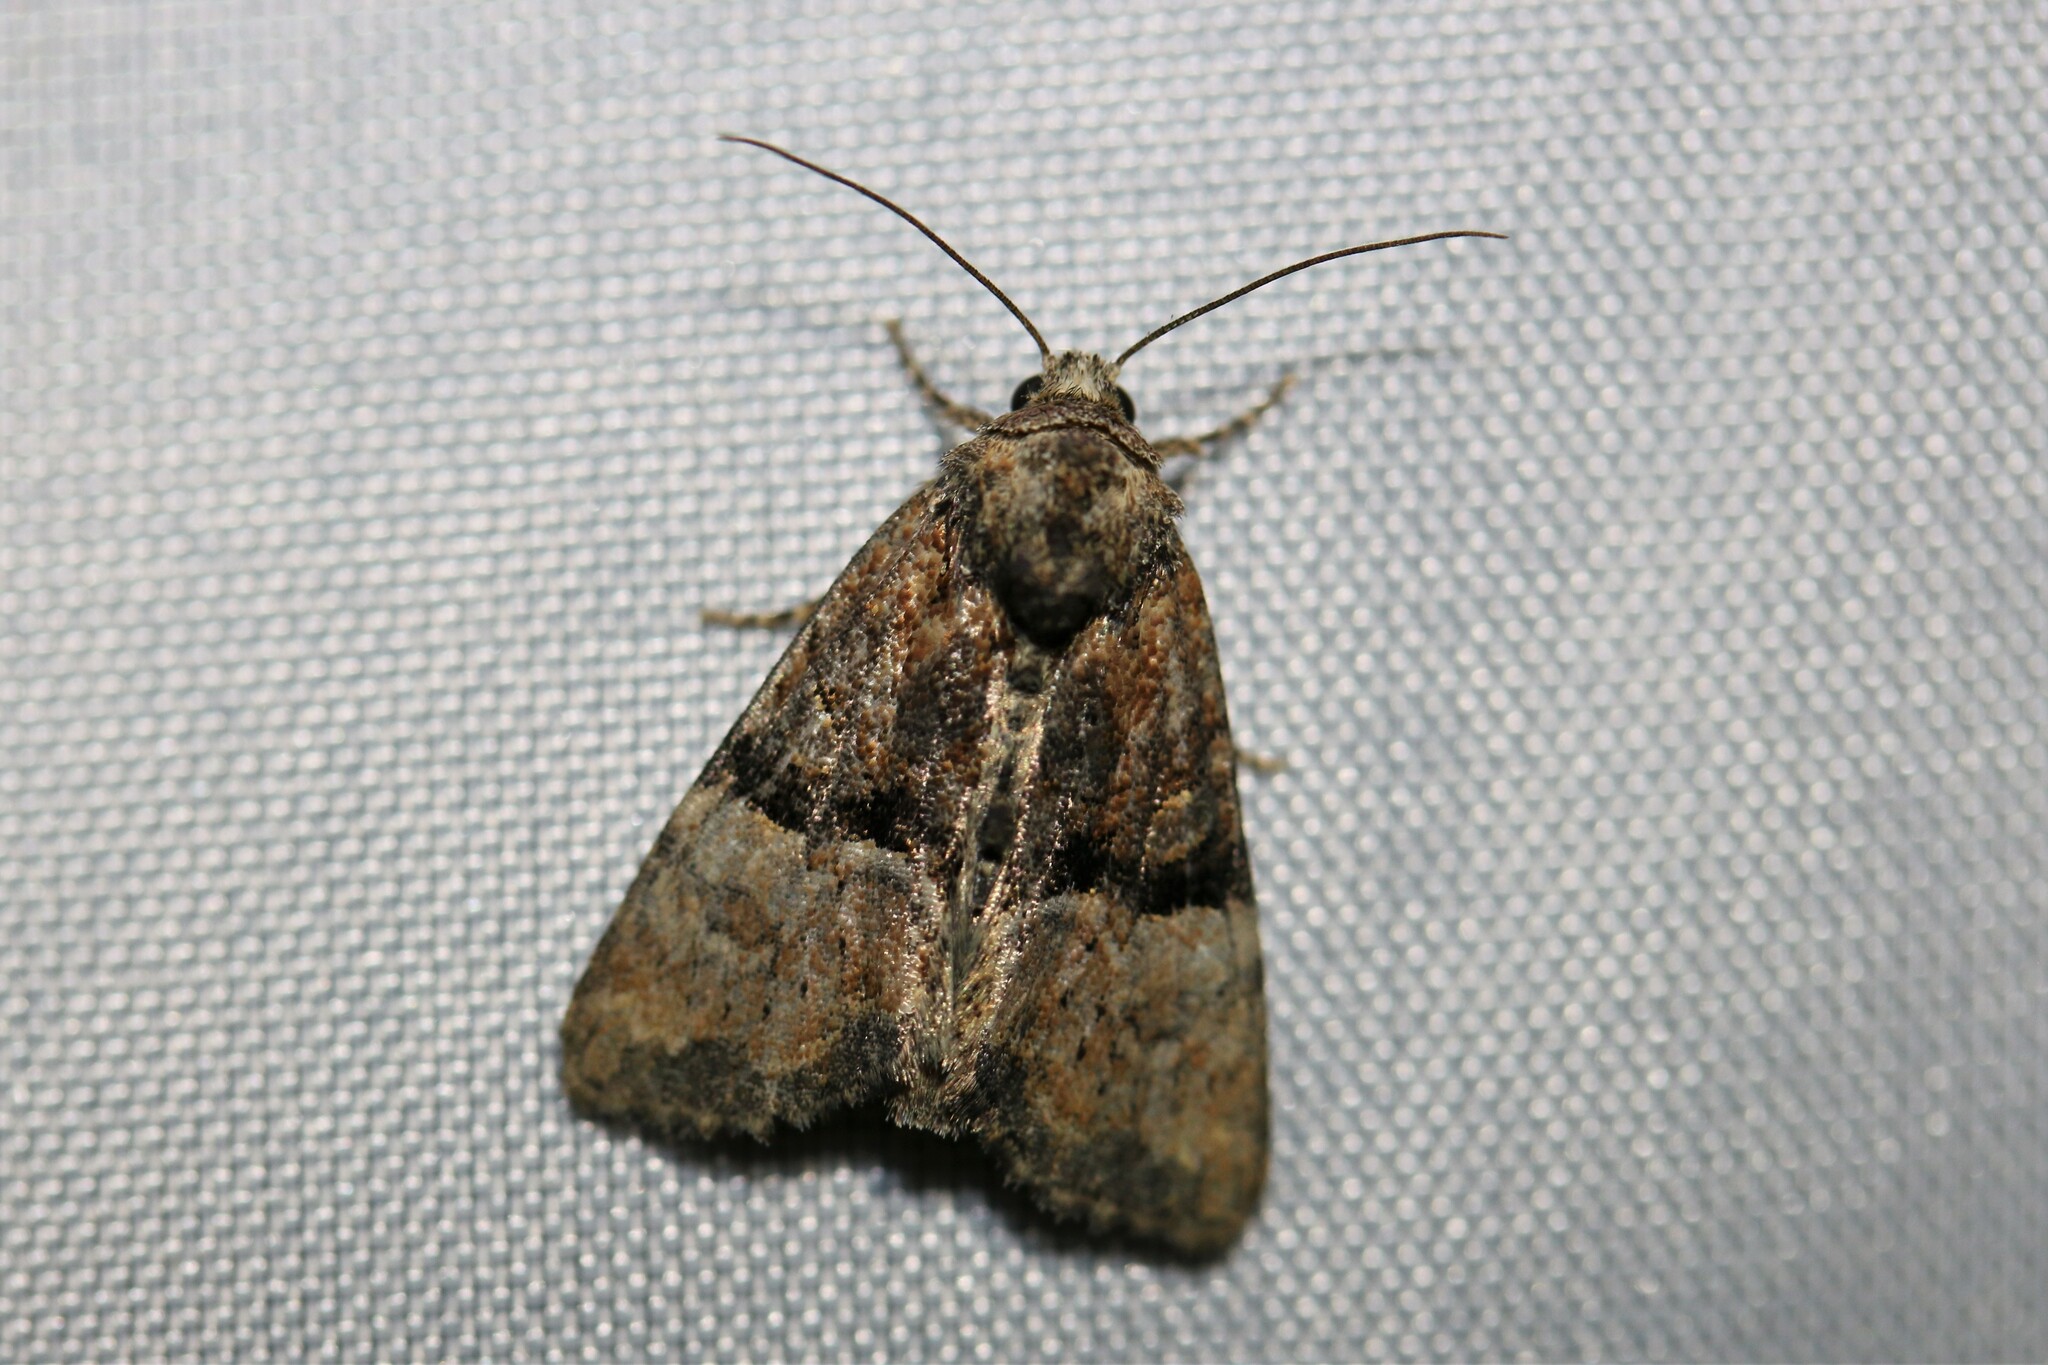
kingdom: Animalia
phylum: Arthropoda
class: Insecta
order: Lepidoptera
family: Noctuidae
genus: Mesoligia
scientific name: Mesoligia furuncula
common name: Cloaked minor
